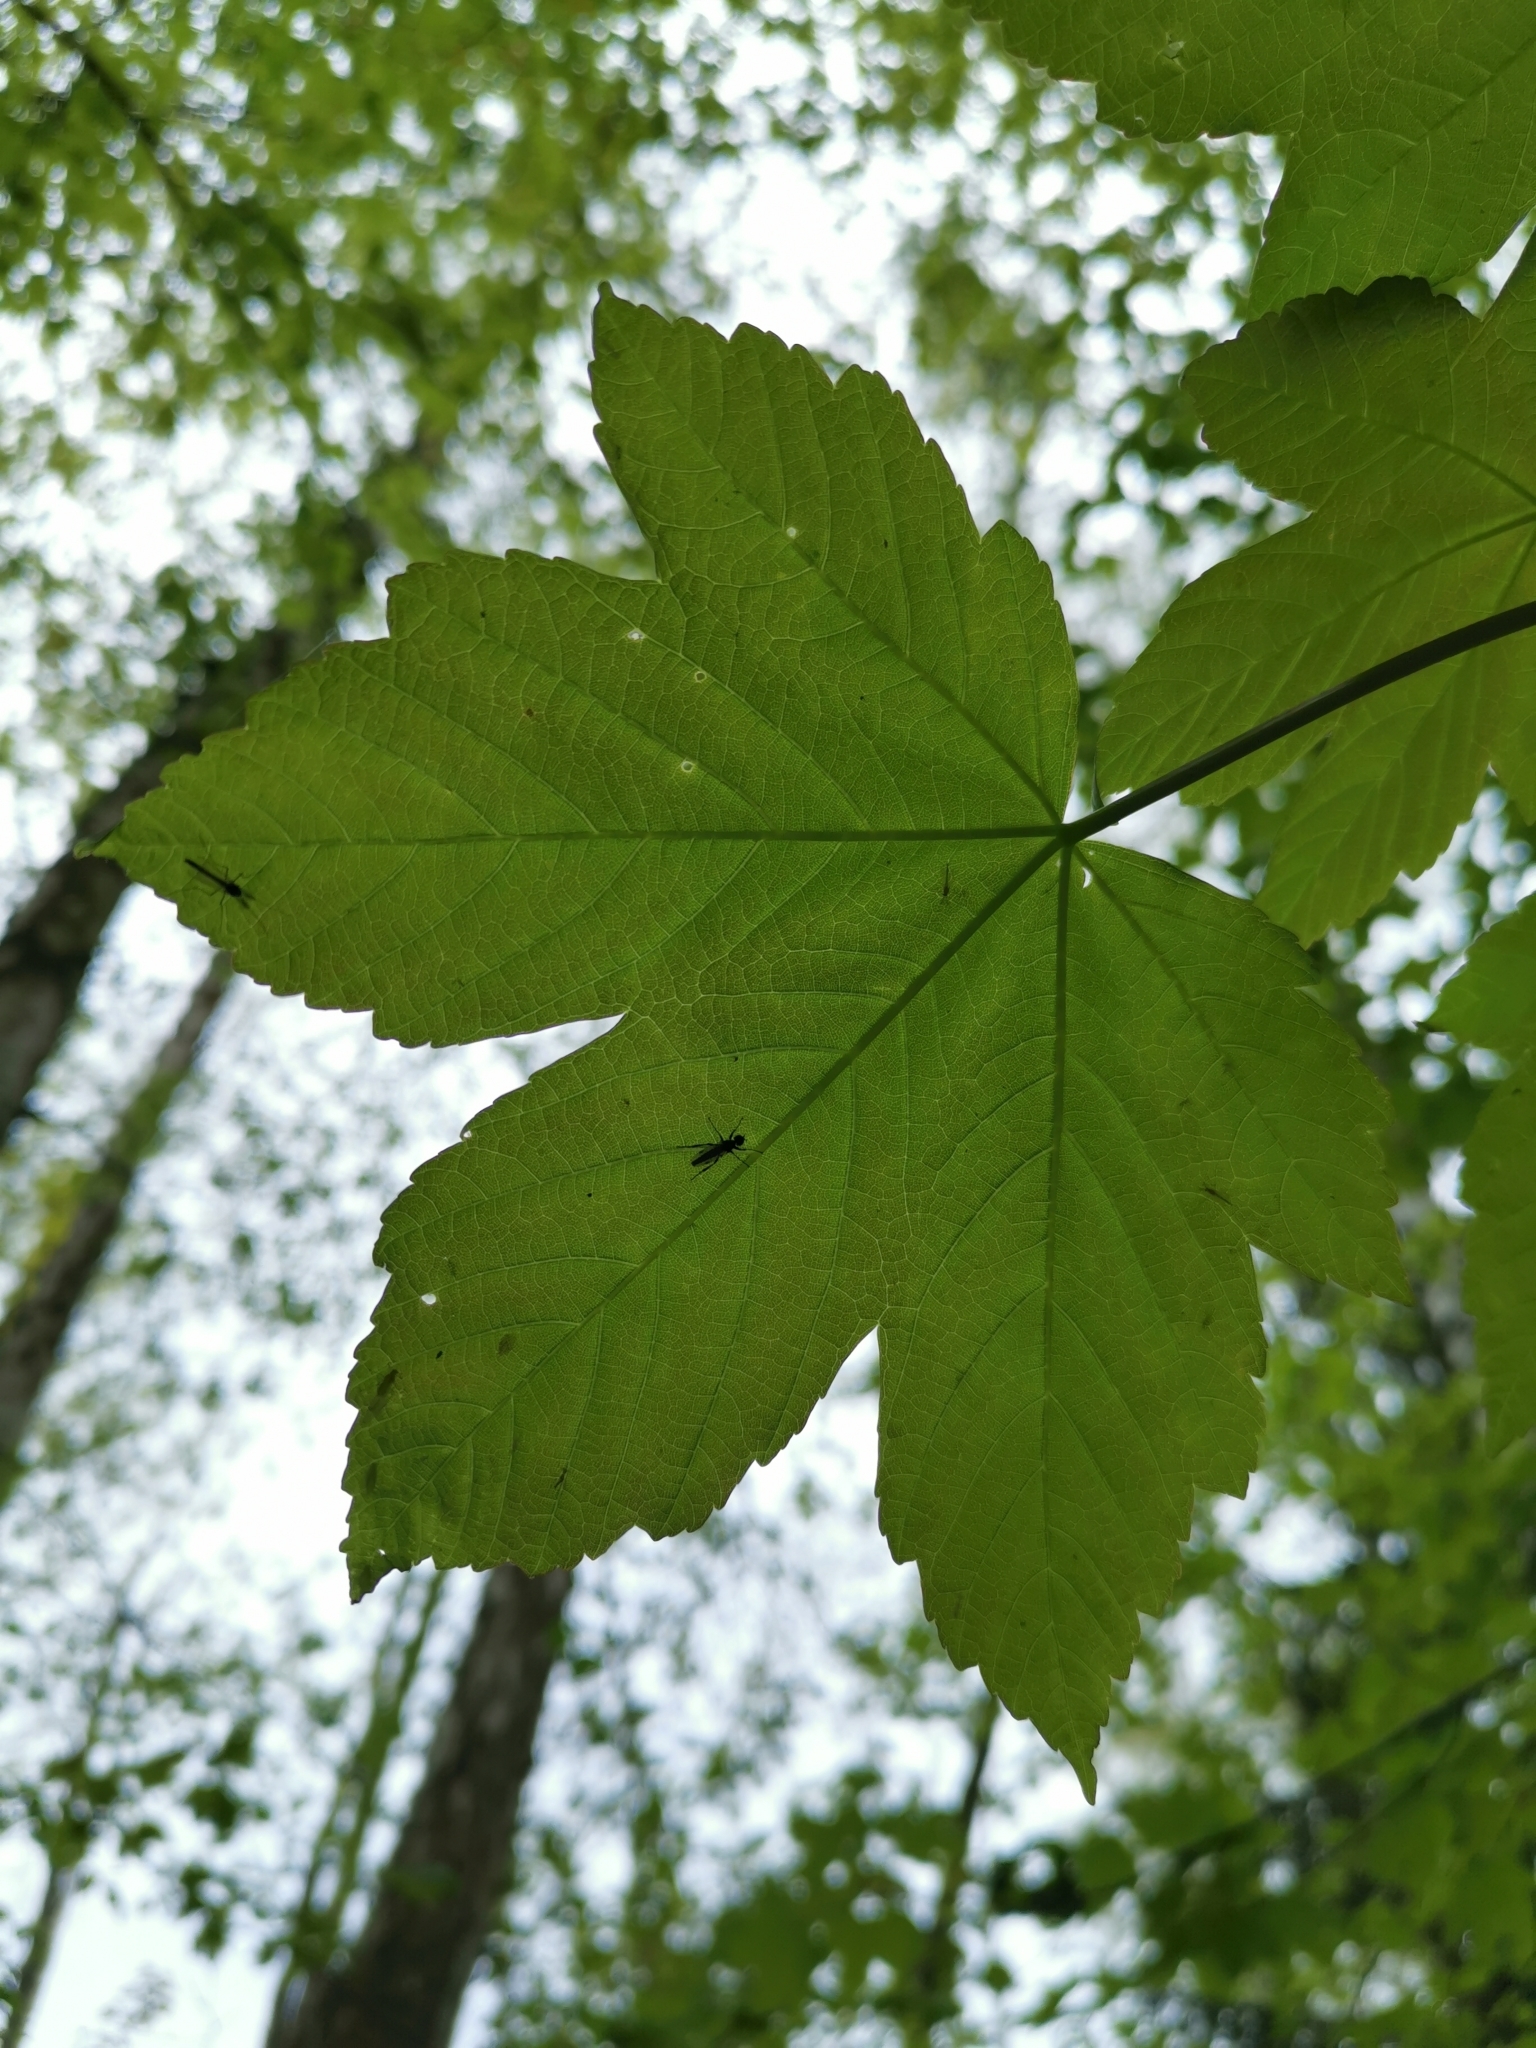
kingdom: Plantae
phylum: Tracheophyta
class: Magnoliopsida
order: Sapindales
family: Sapindaceae
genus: Acer
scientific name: Acer pseudoplatanus
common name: Sycamore
